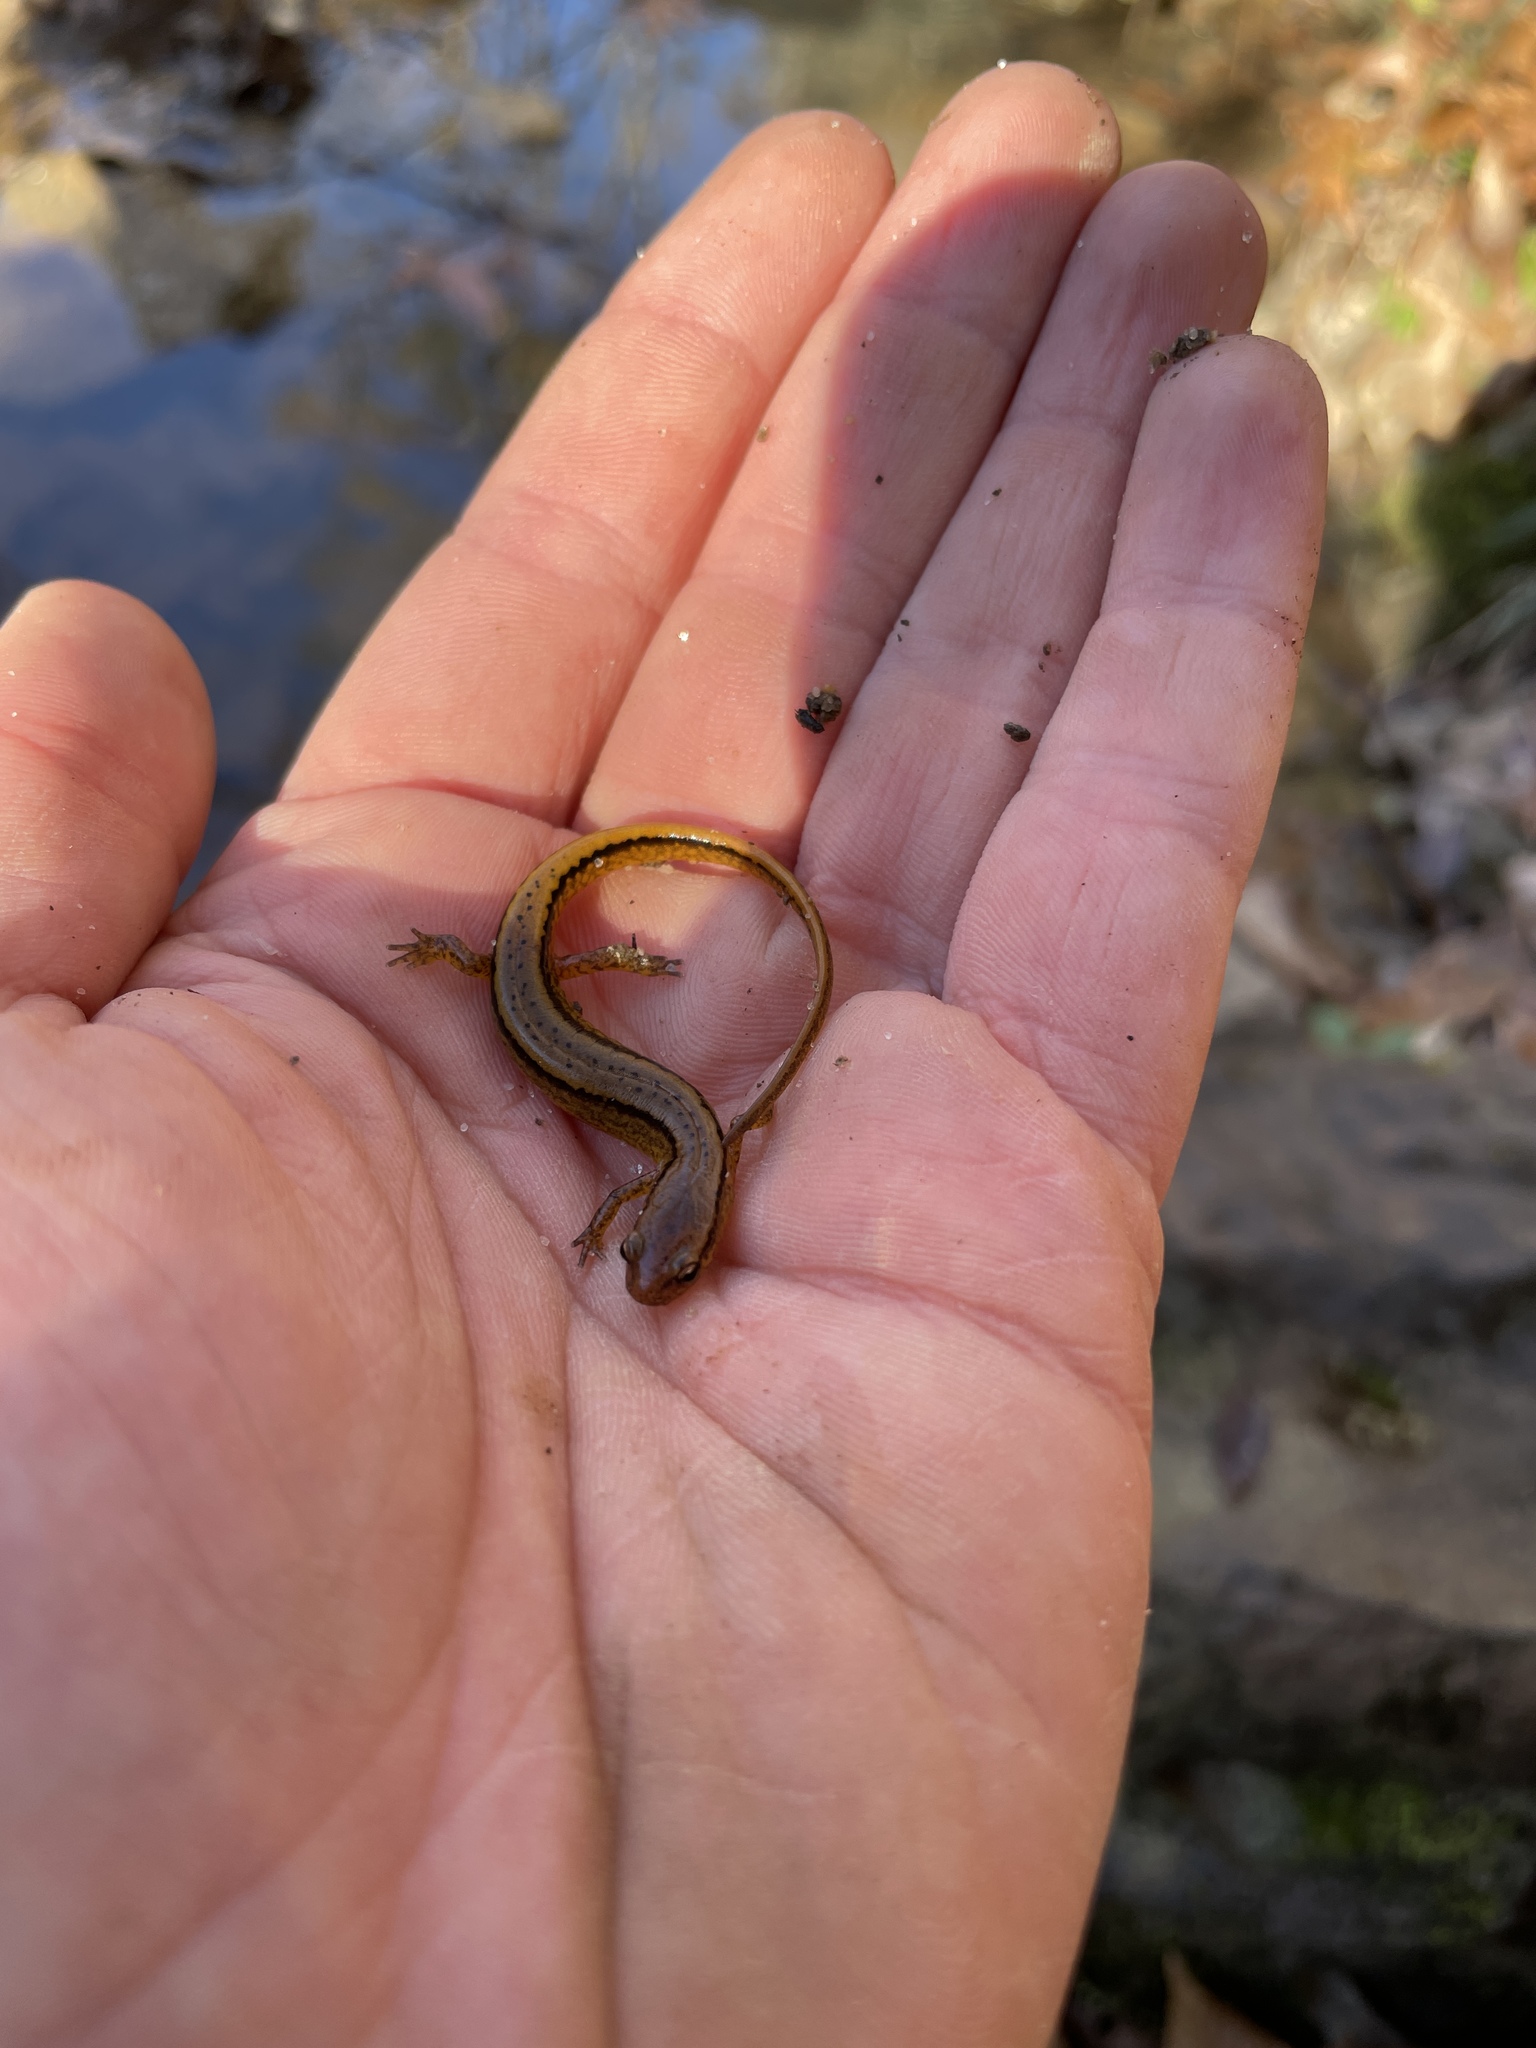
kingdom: Animalia
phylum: Chordata
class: Amphibia
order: Caudata
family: Plethodontidae
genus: Eurycea
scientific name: Eurycea cirrigera
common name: Southern two-lined salamander
